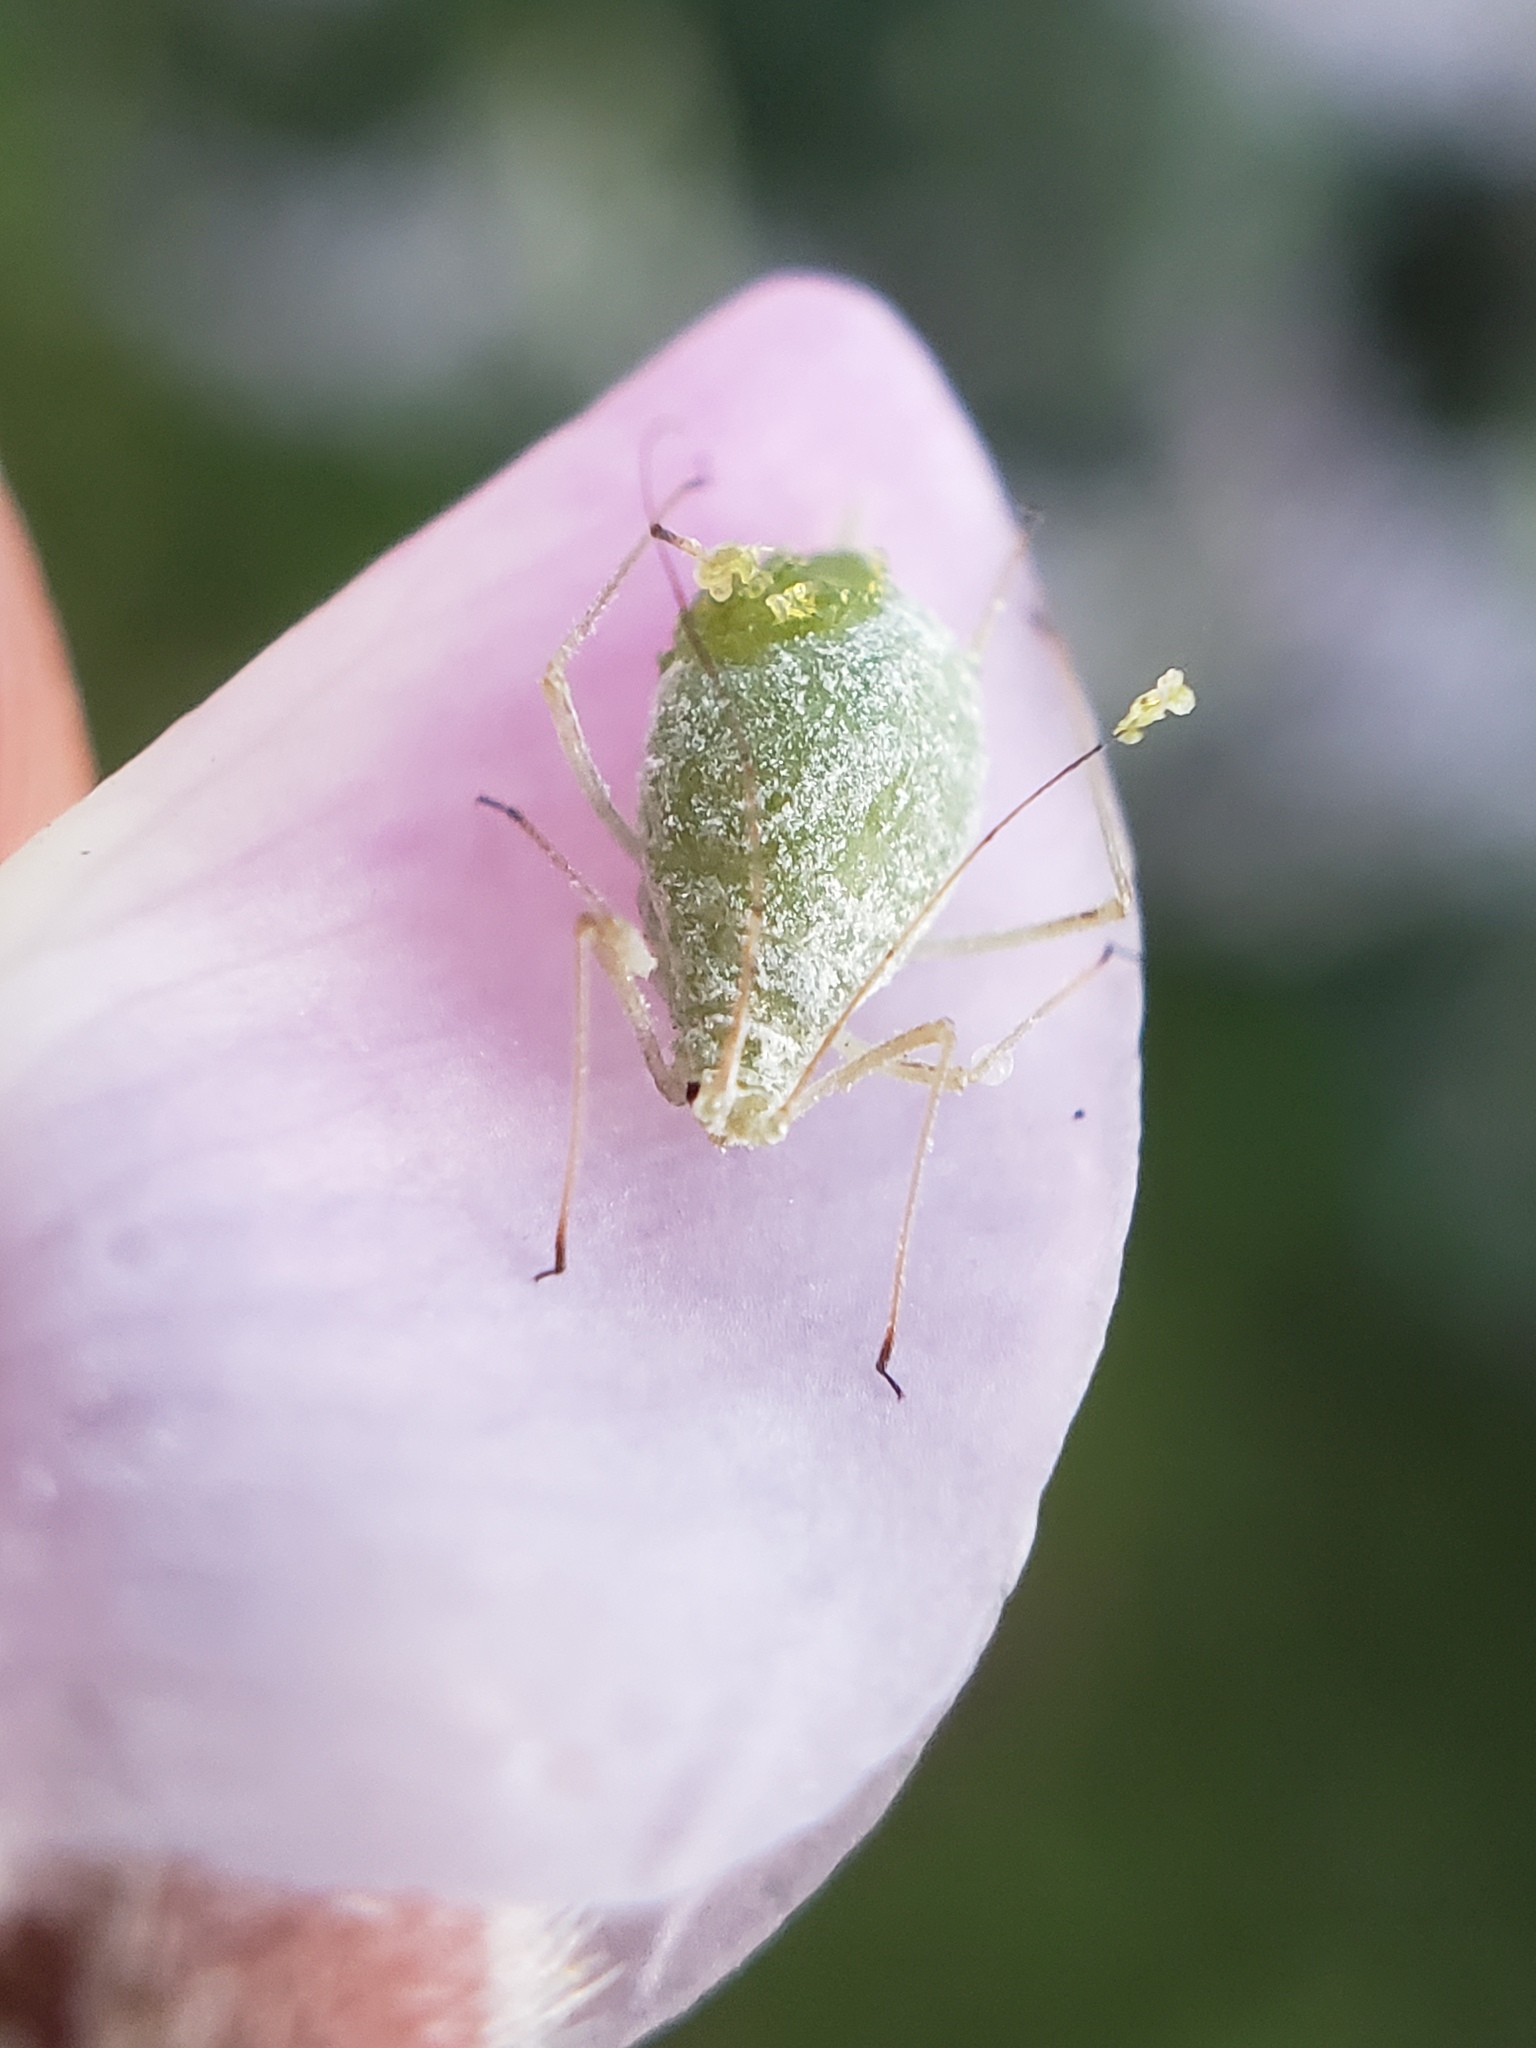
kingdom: Animalia
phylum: Arthropoda
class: Insecta
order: Hemiptera
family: Aphididae
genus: Macrosiphum
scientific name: Macrosiphum albifrons
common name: Lupine aphid
